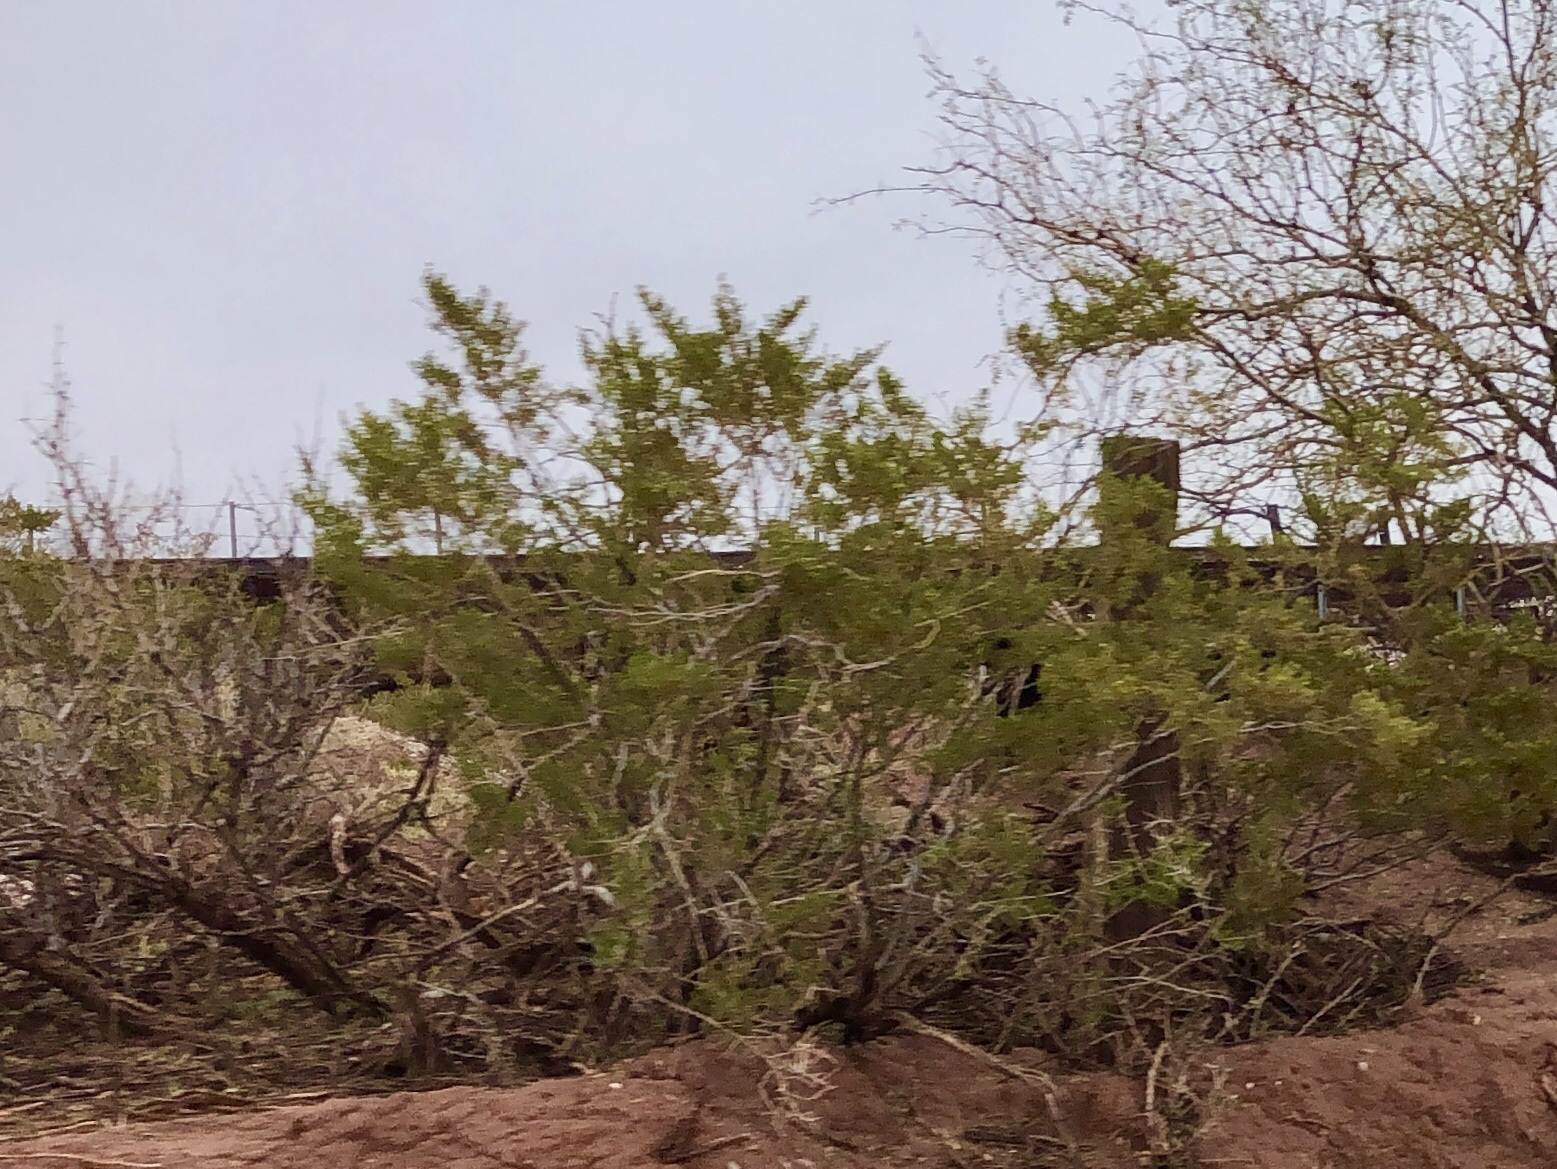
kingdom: Plantae
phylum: Tracheophyta
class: Magnoliopsida
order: Zygophyllales
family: Zygophyllaceae
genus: Larrea
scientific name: Larrea tridentata
